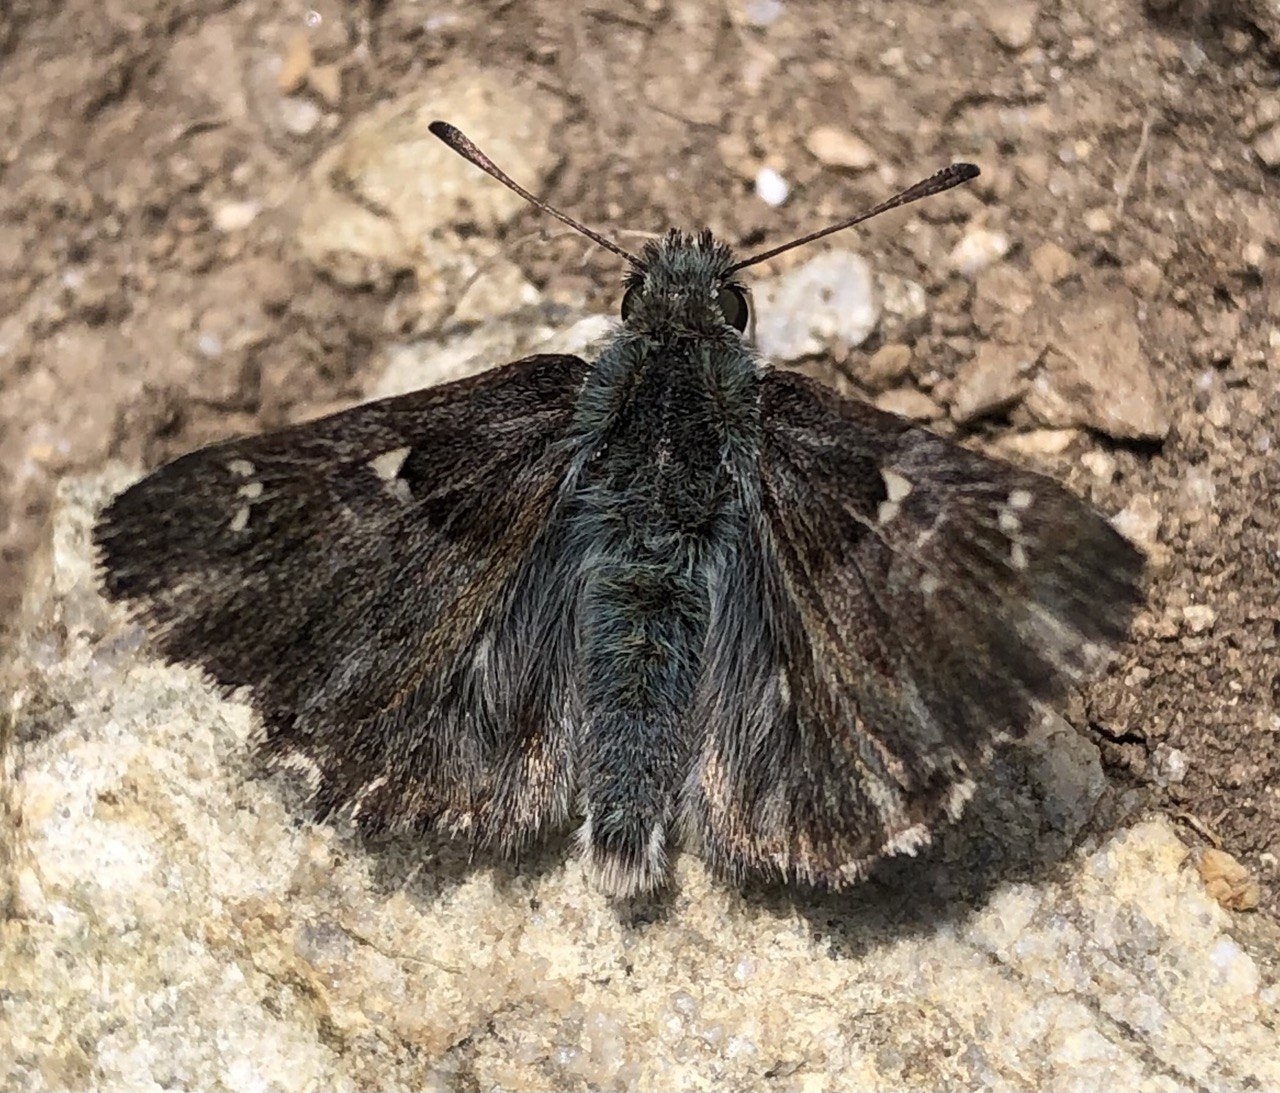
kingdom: Animalia
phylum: Arthropoda
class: Insecta
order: Lepidoptera
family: Hesperiidae
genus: Carcharodus
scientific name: Carcharodus floccifera
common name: Tufted marbled skipper
